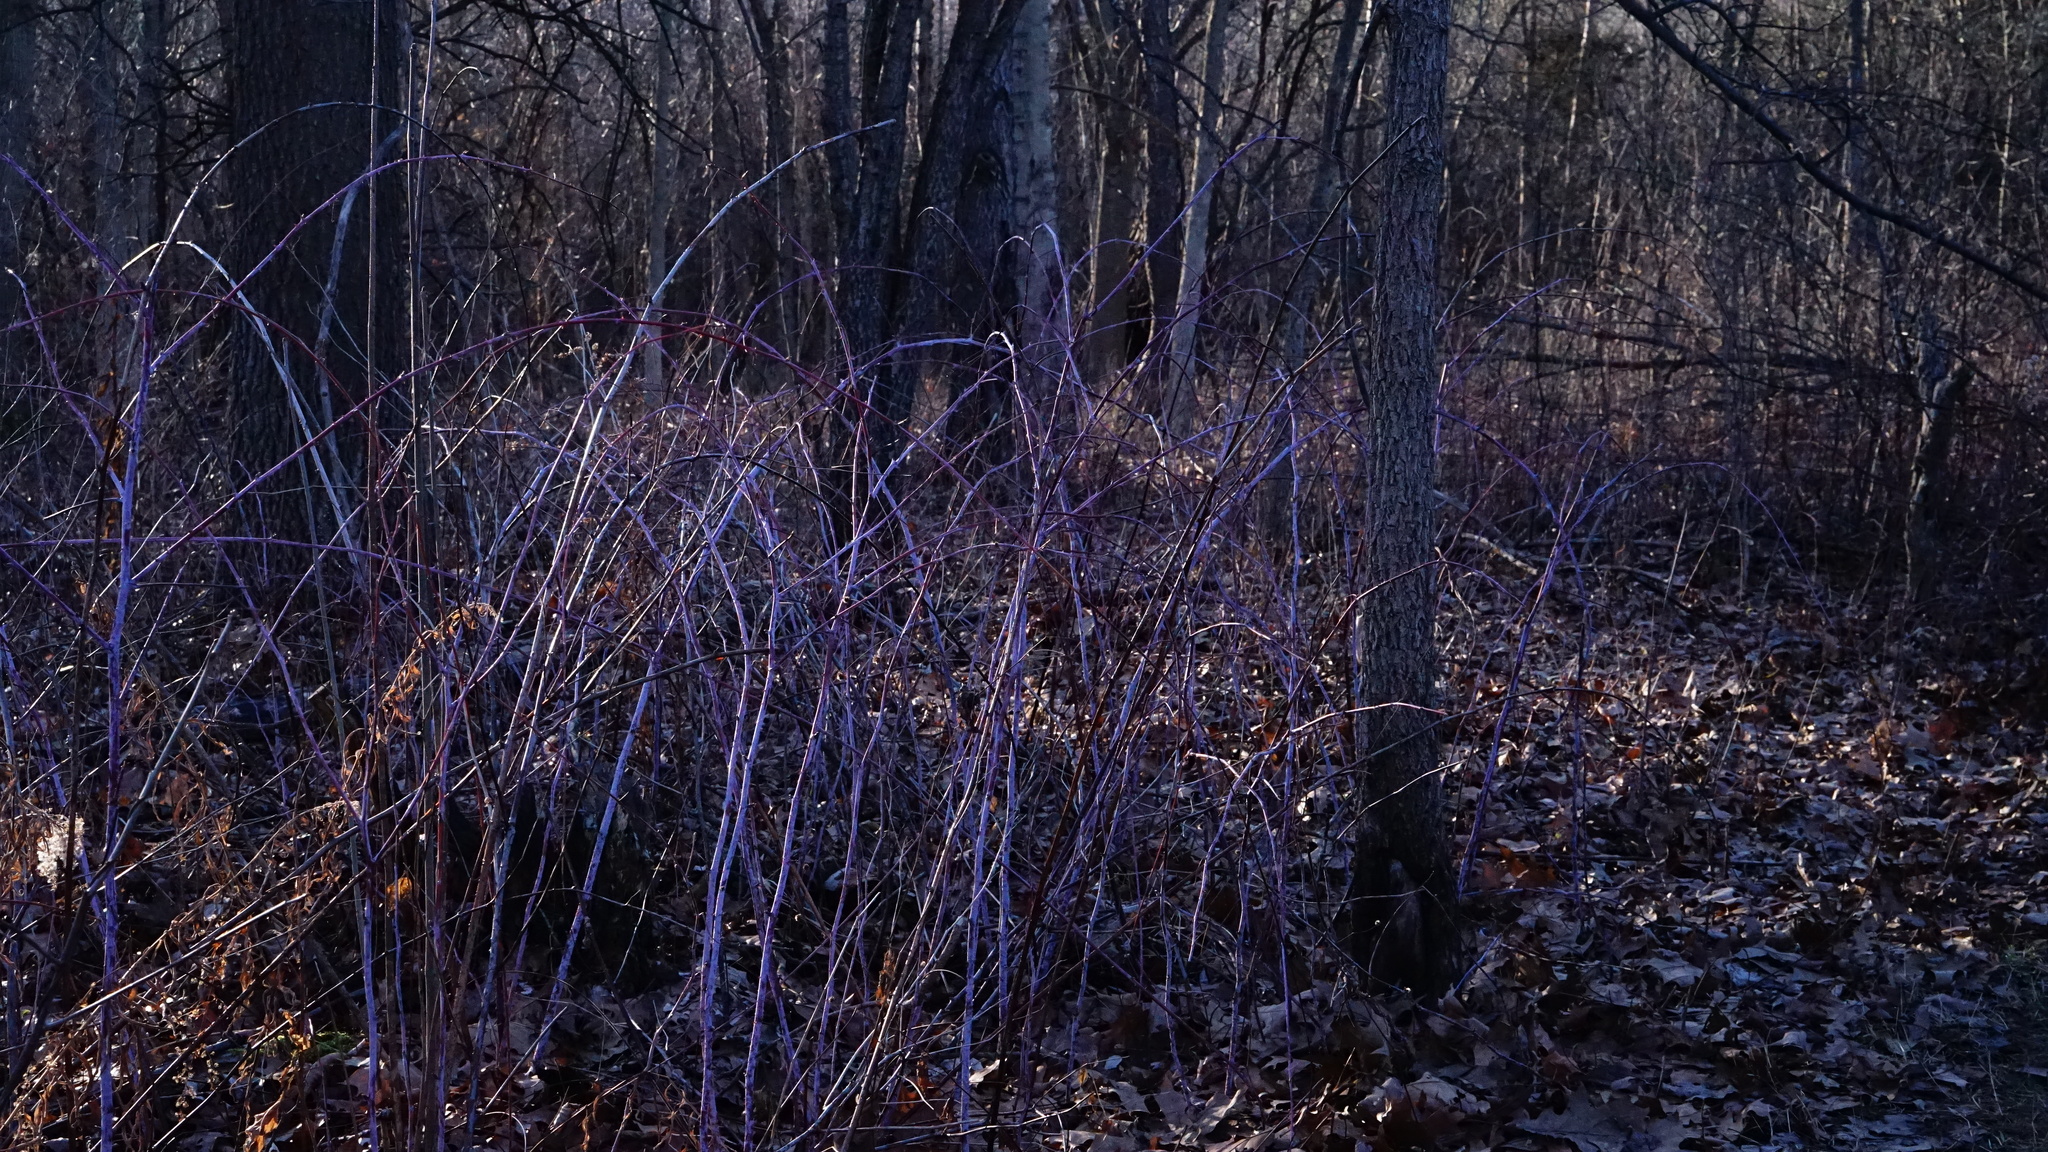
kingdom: Plantae
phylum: Tracheophyta
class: Magnoliopsida
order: Rosales
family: Rosaceae
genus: Rubus
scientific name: Rubus occidentalis
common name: Black raspberry
